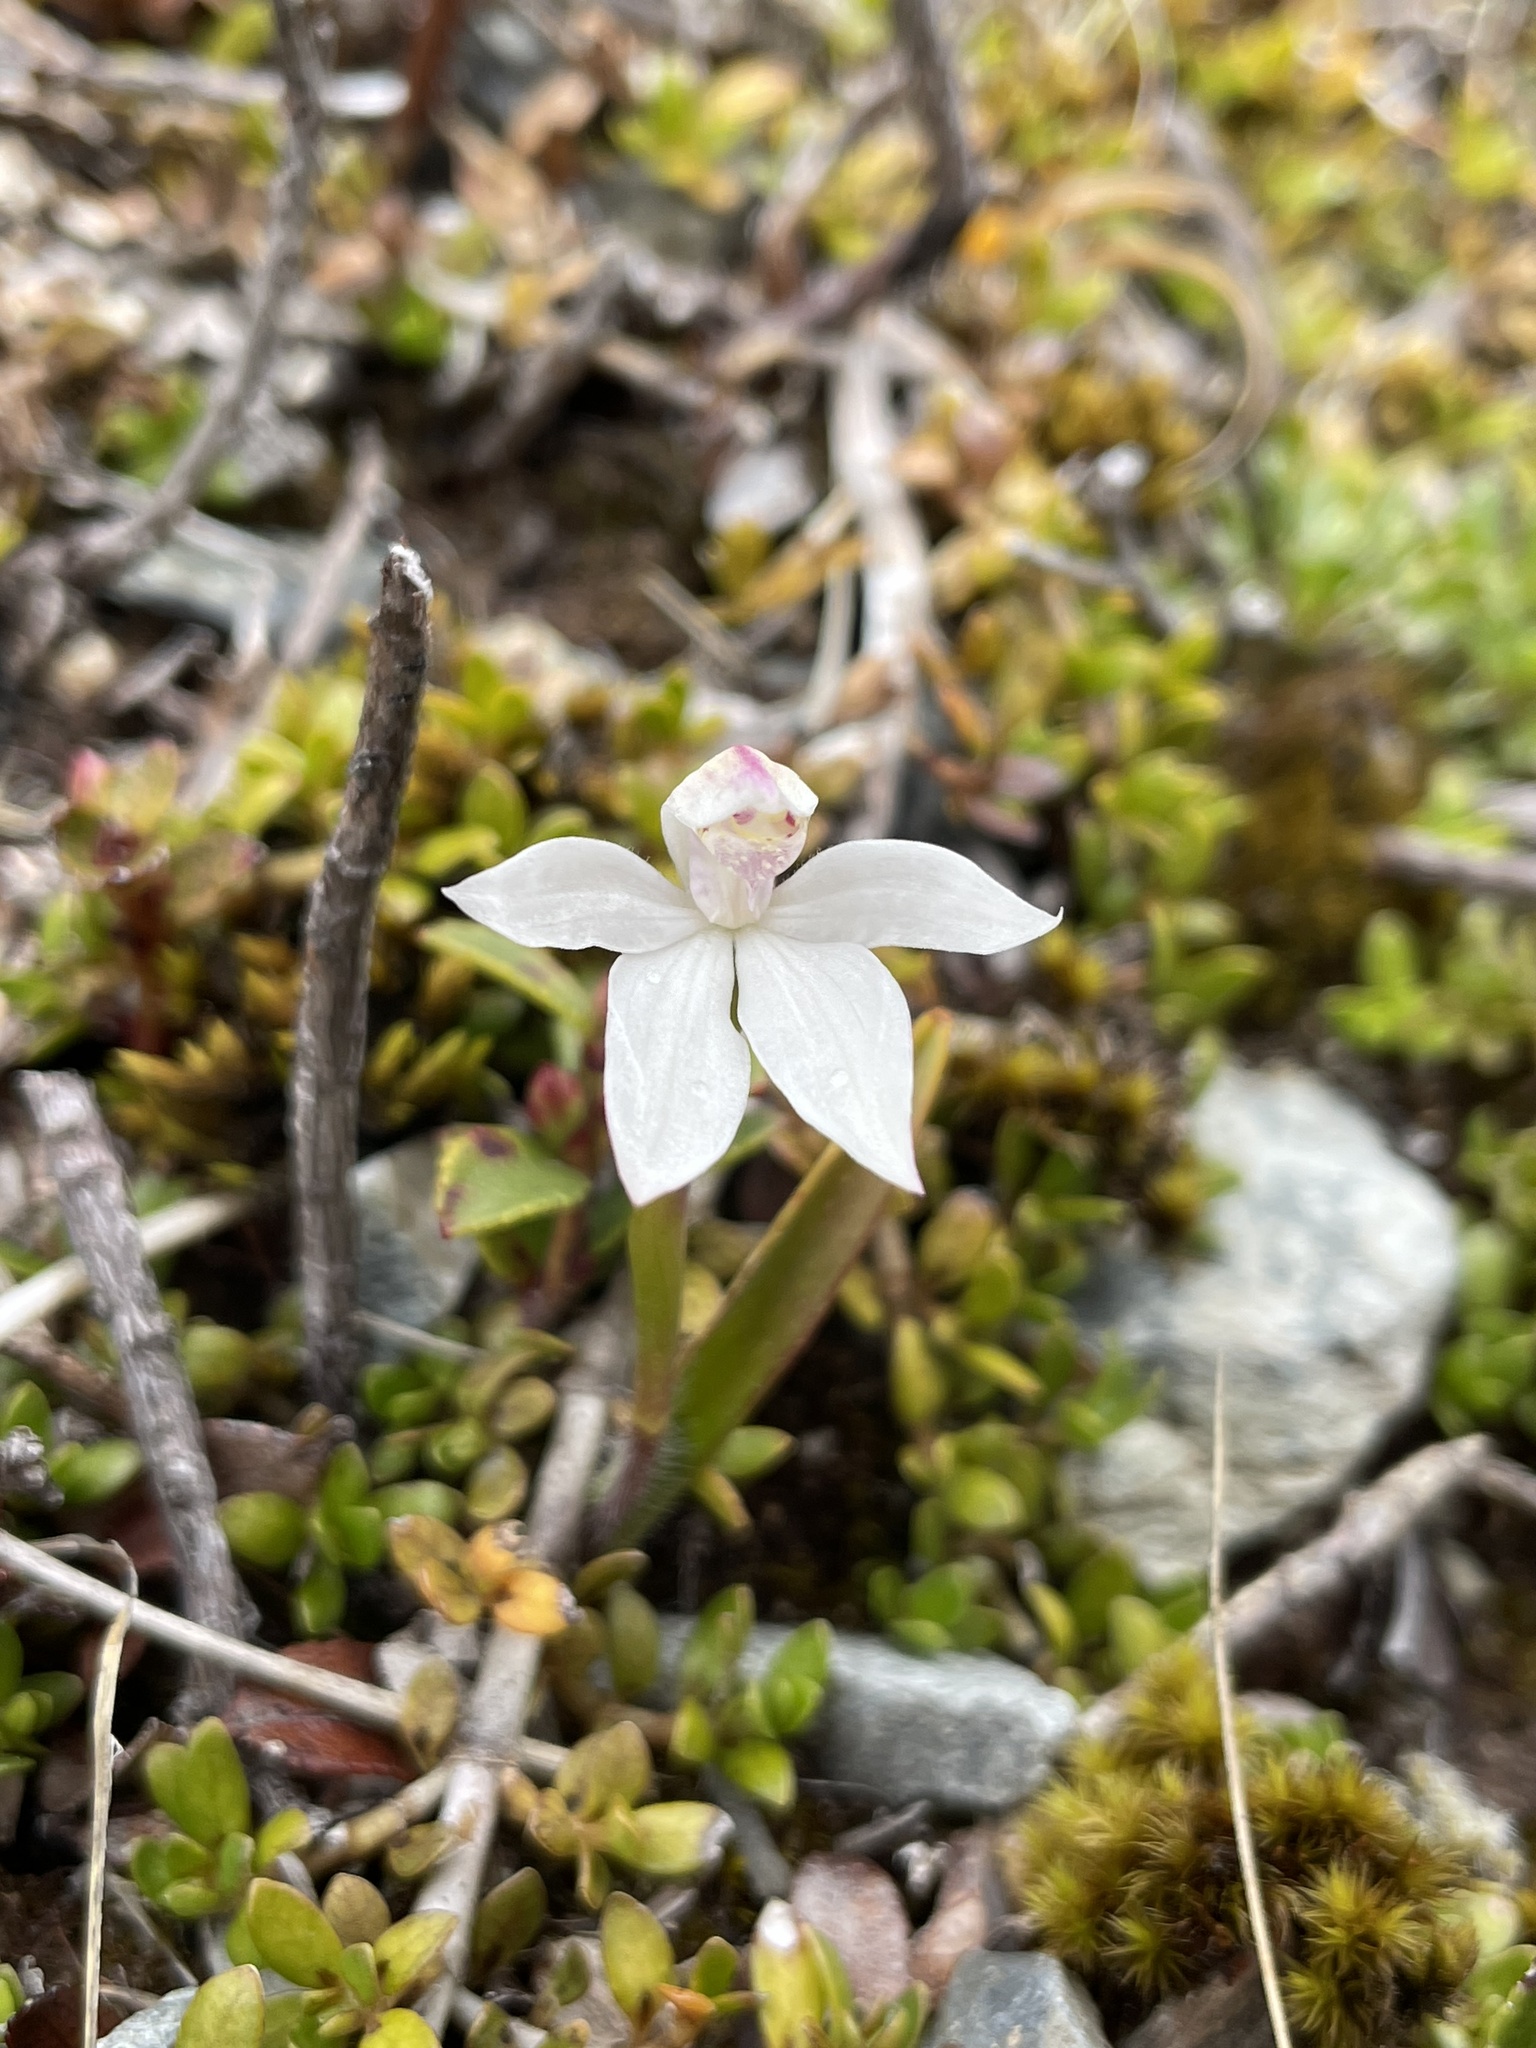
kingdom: Plantae
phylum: Tracheophyta
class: Liliopsida
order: Asparagales
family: Orchidaceae
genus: Caladenia
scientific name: Caladenia lyallii
